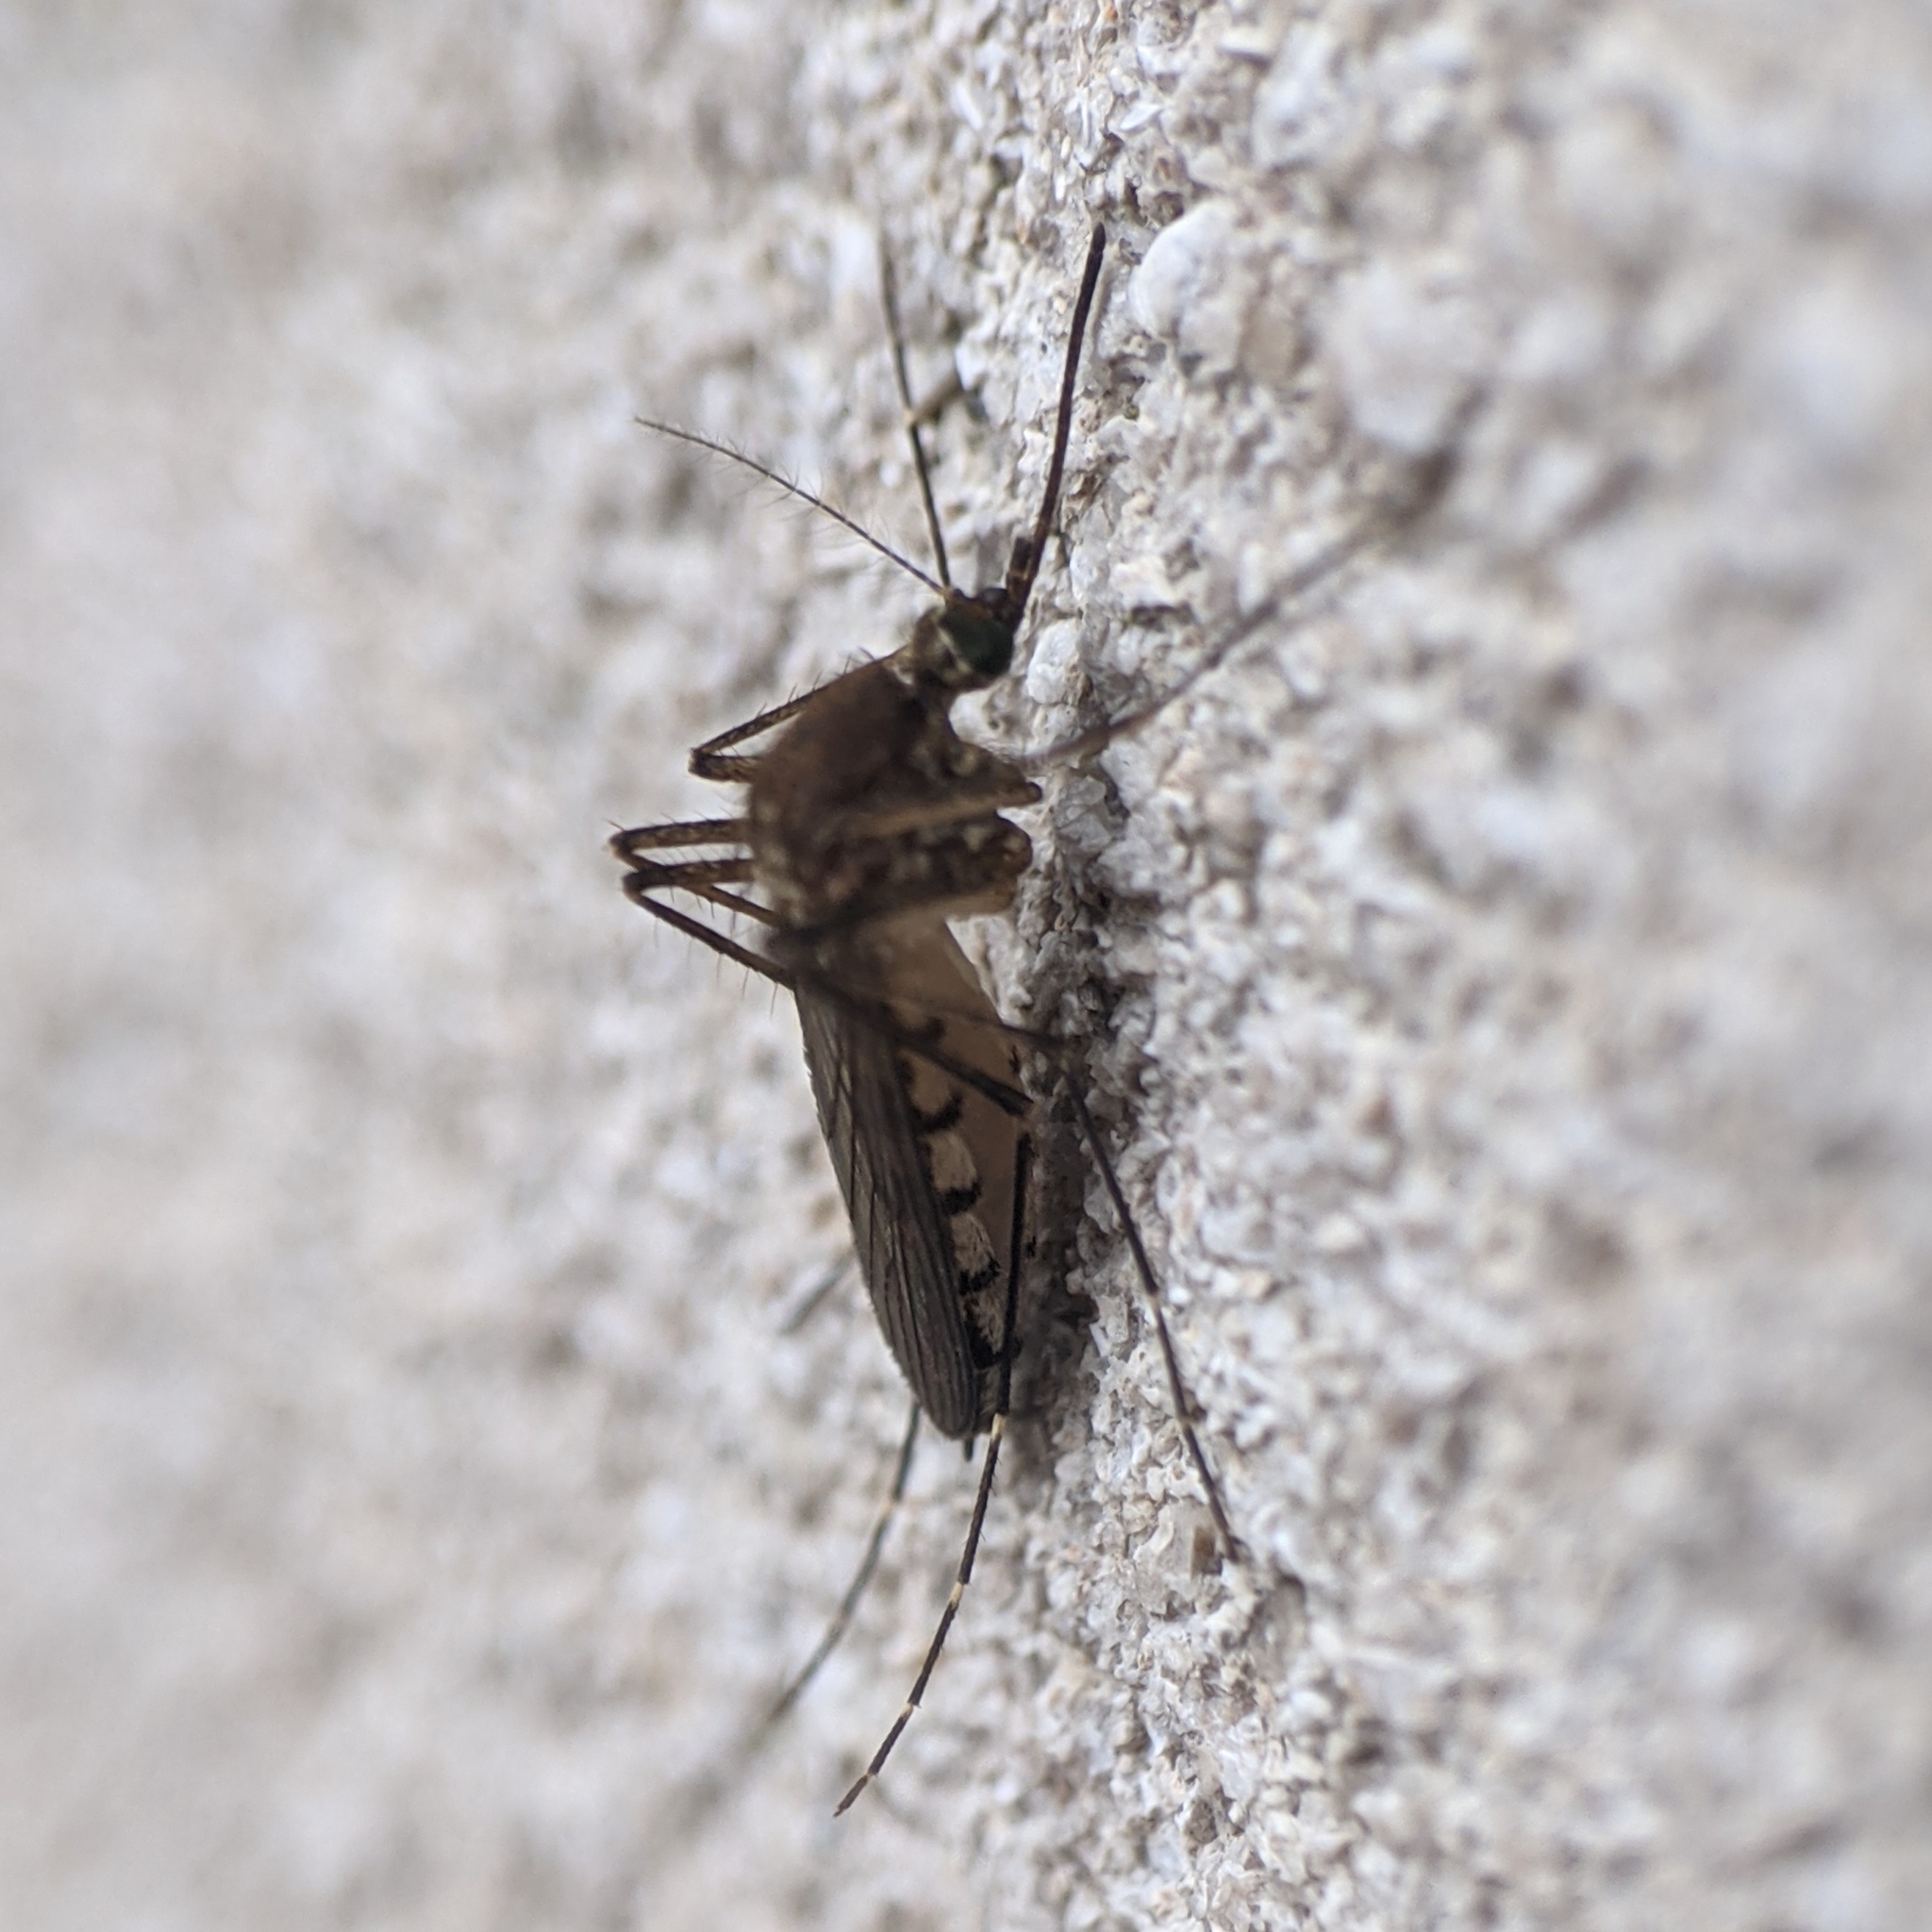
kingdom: Animalia
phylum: Arthropoda
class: Insecta
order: Diptera
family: Culicidae
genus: Aedes
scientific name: Aedes vexans
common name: Inland floodwater mosquito
